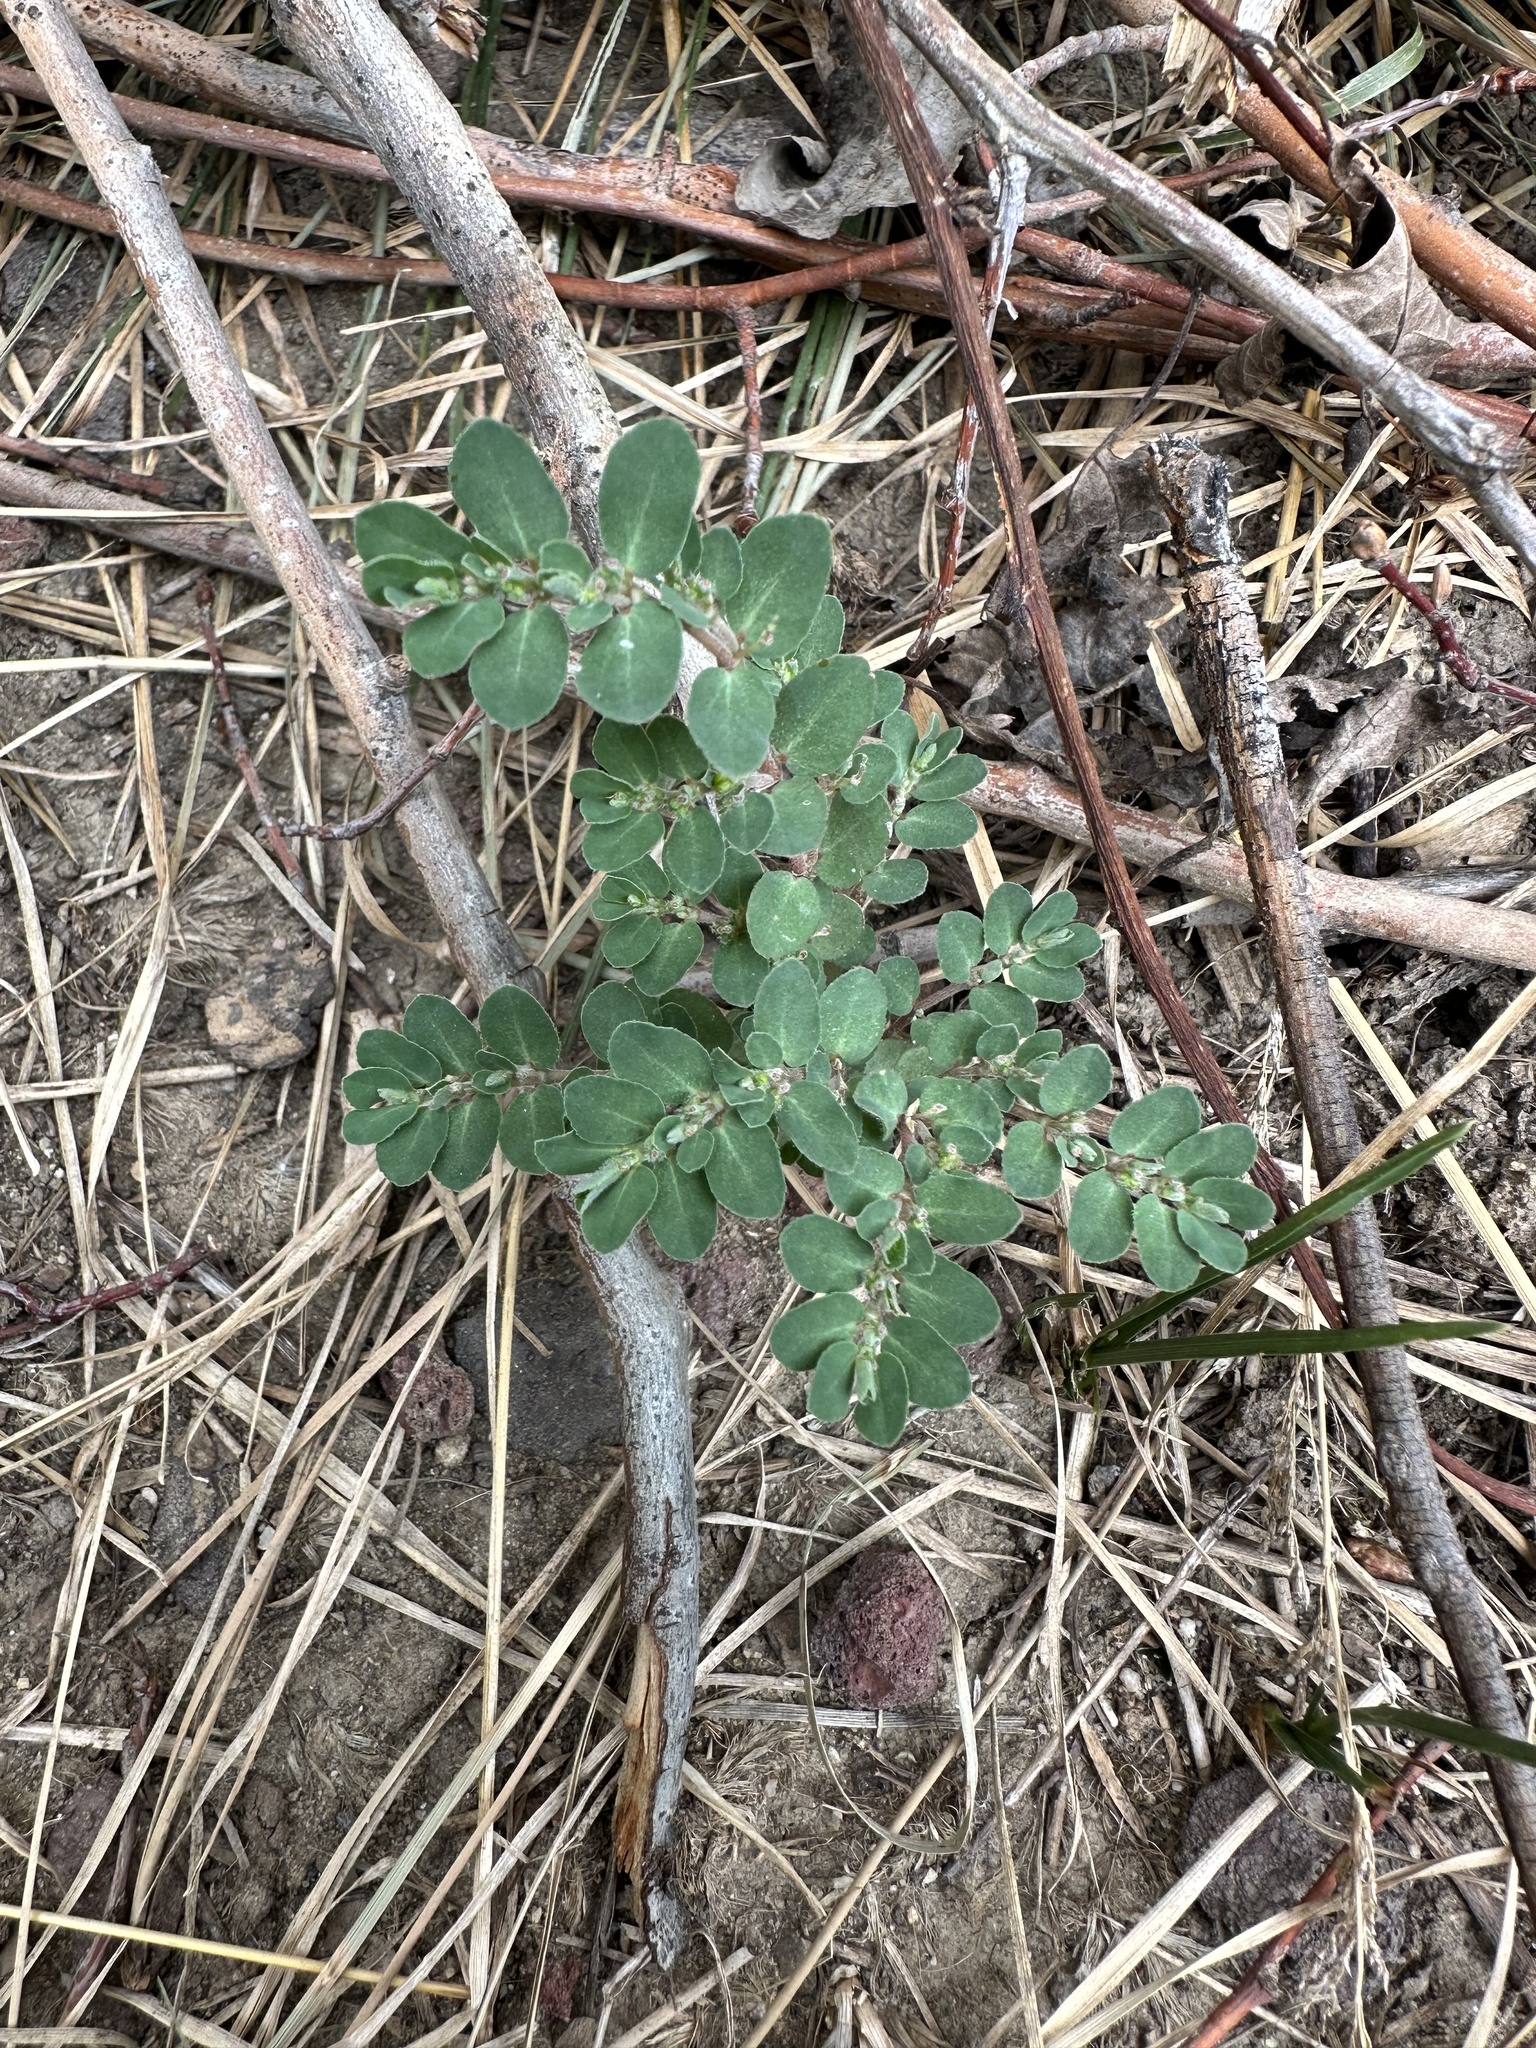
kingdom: Plantae
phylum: Tracheophyta
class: Magnoliopsida
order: Malpighiales
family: Euphorbiaceae
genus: Euphorbia
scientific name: Euphorbia prostrata
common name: Prostrate sandmat
